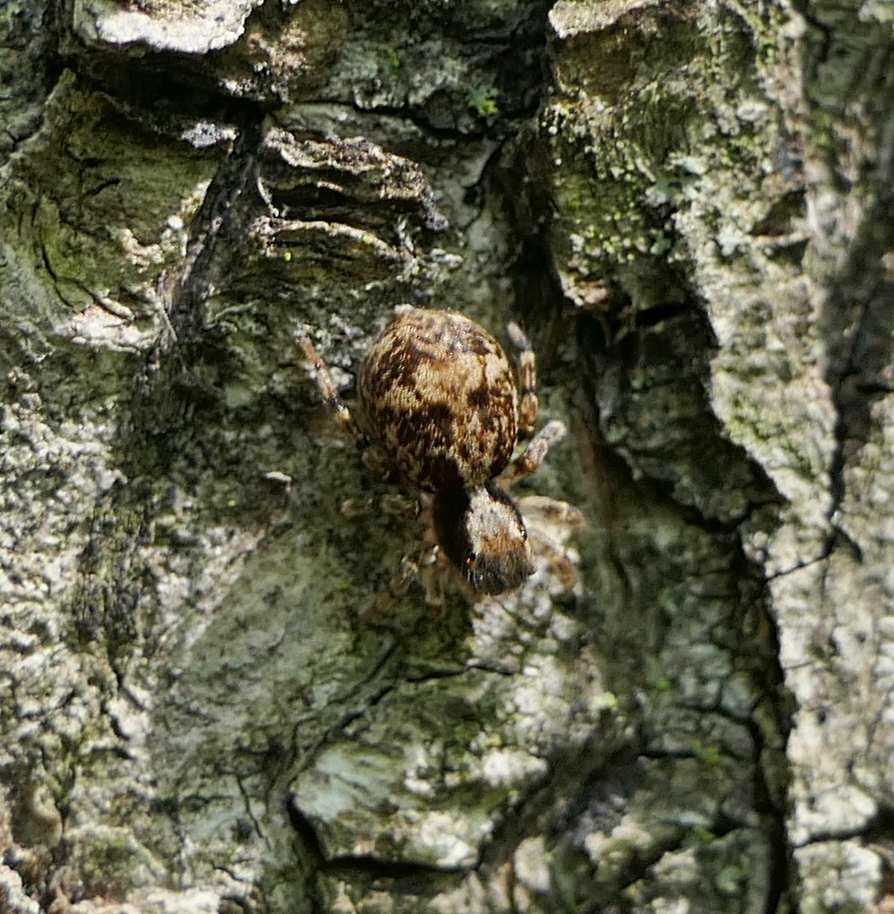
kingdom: Animalia
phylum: Arthropoda
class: Arachnida
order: Araneae
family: Salticidae
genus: Naphrys
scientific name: Naphrys pulex
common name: Flea jumping spider
